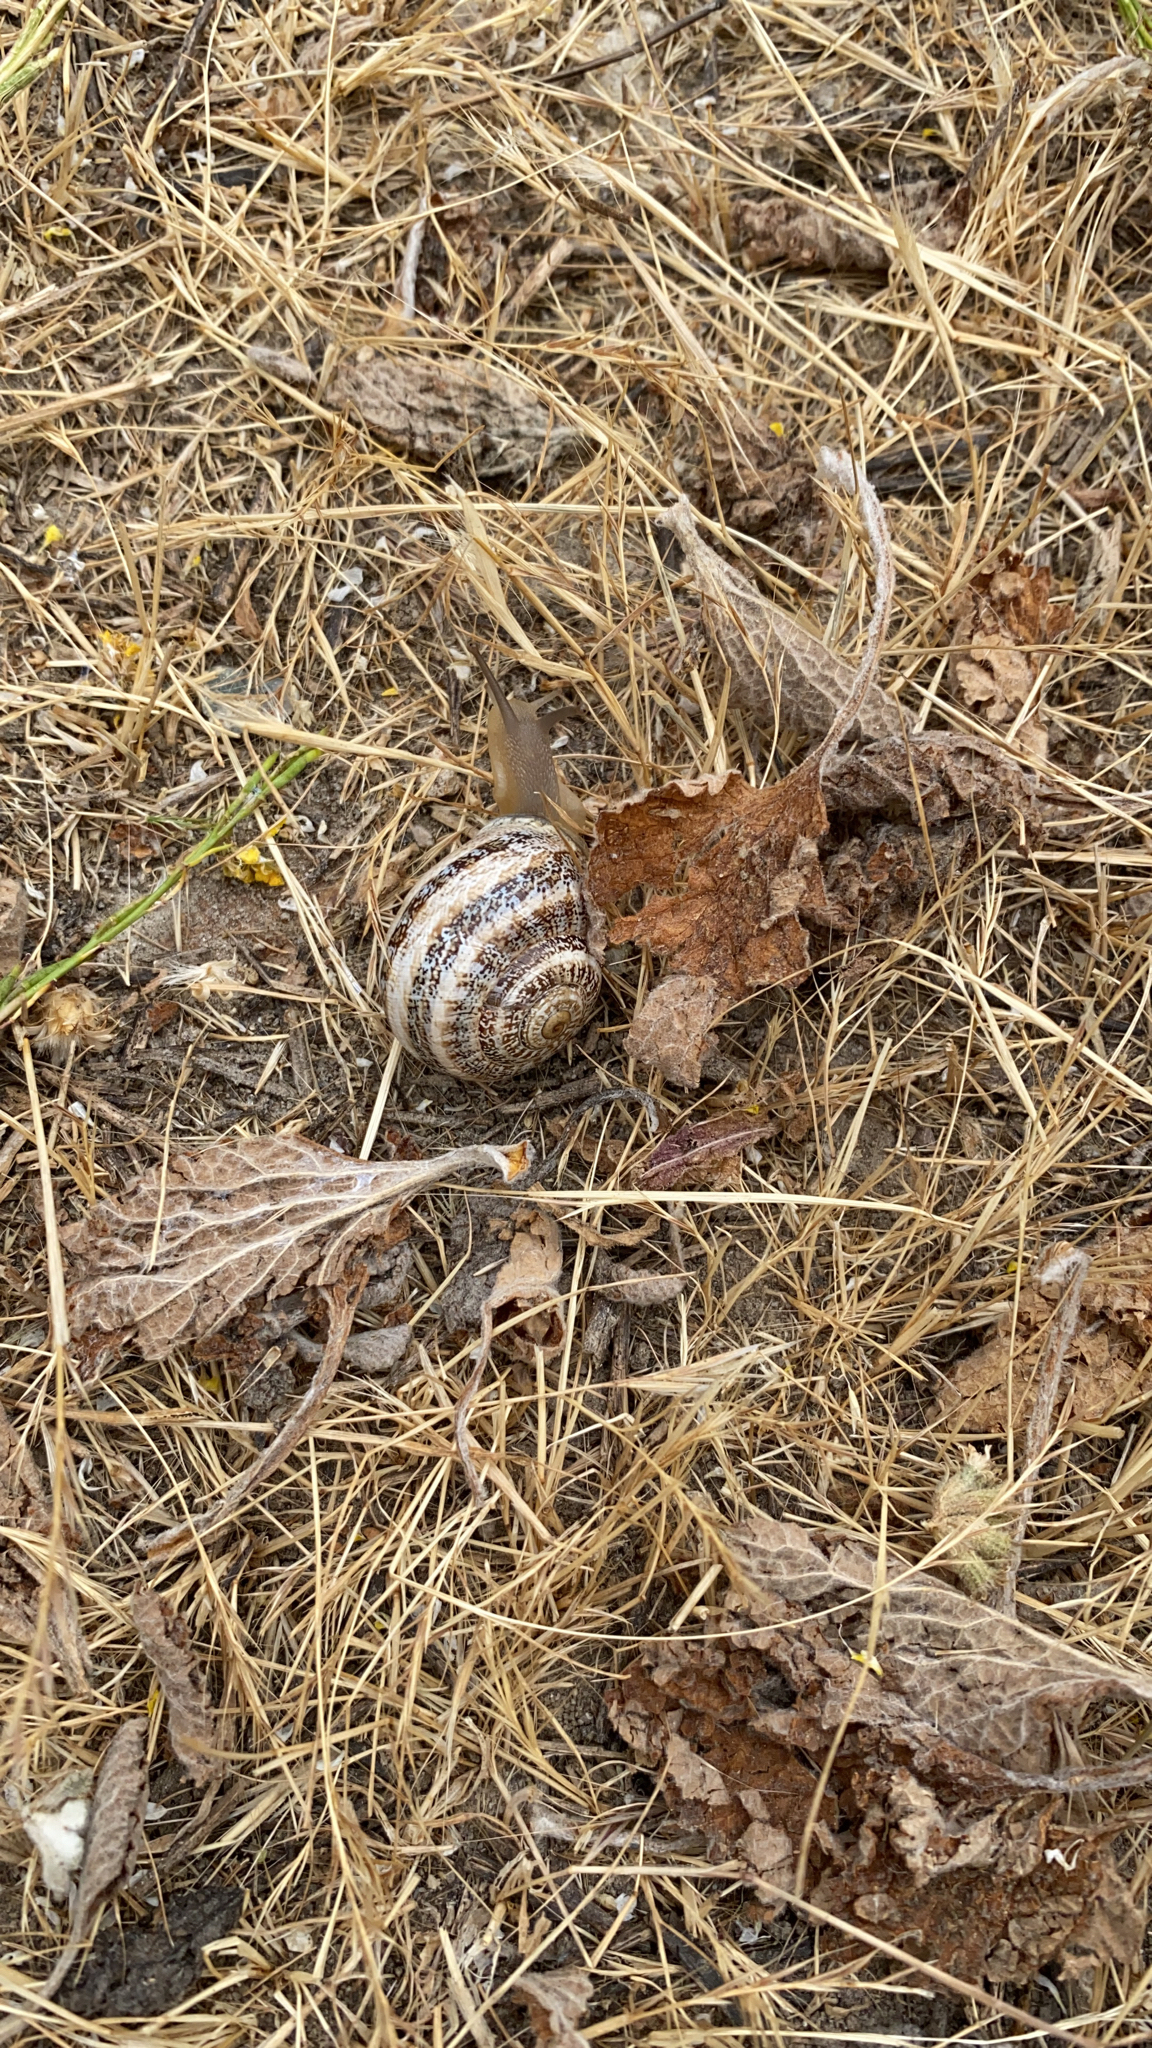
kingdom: Animalia
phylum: Mollusca
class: Gastropoda
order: Stylommatophora
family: Helicidae
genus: Otala
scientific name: Otala lactea
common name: Milk snail
